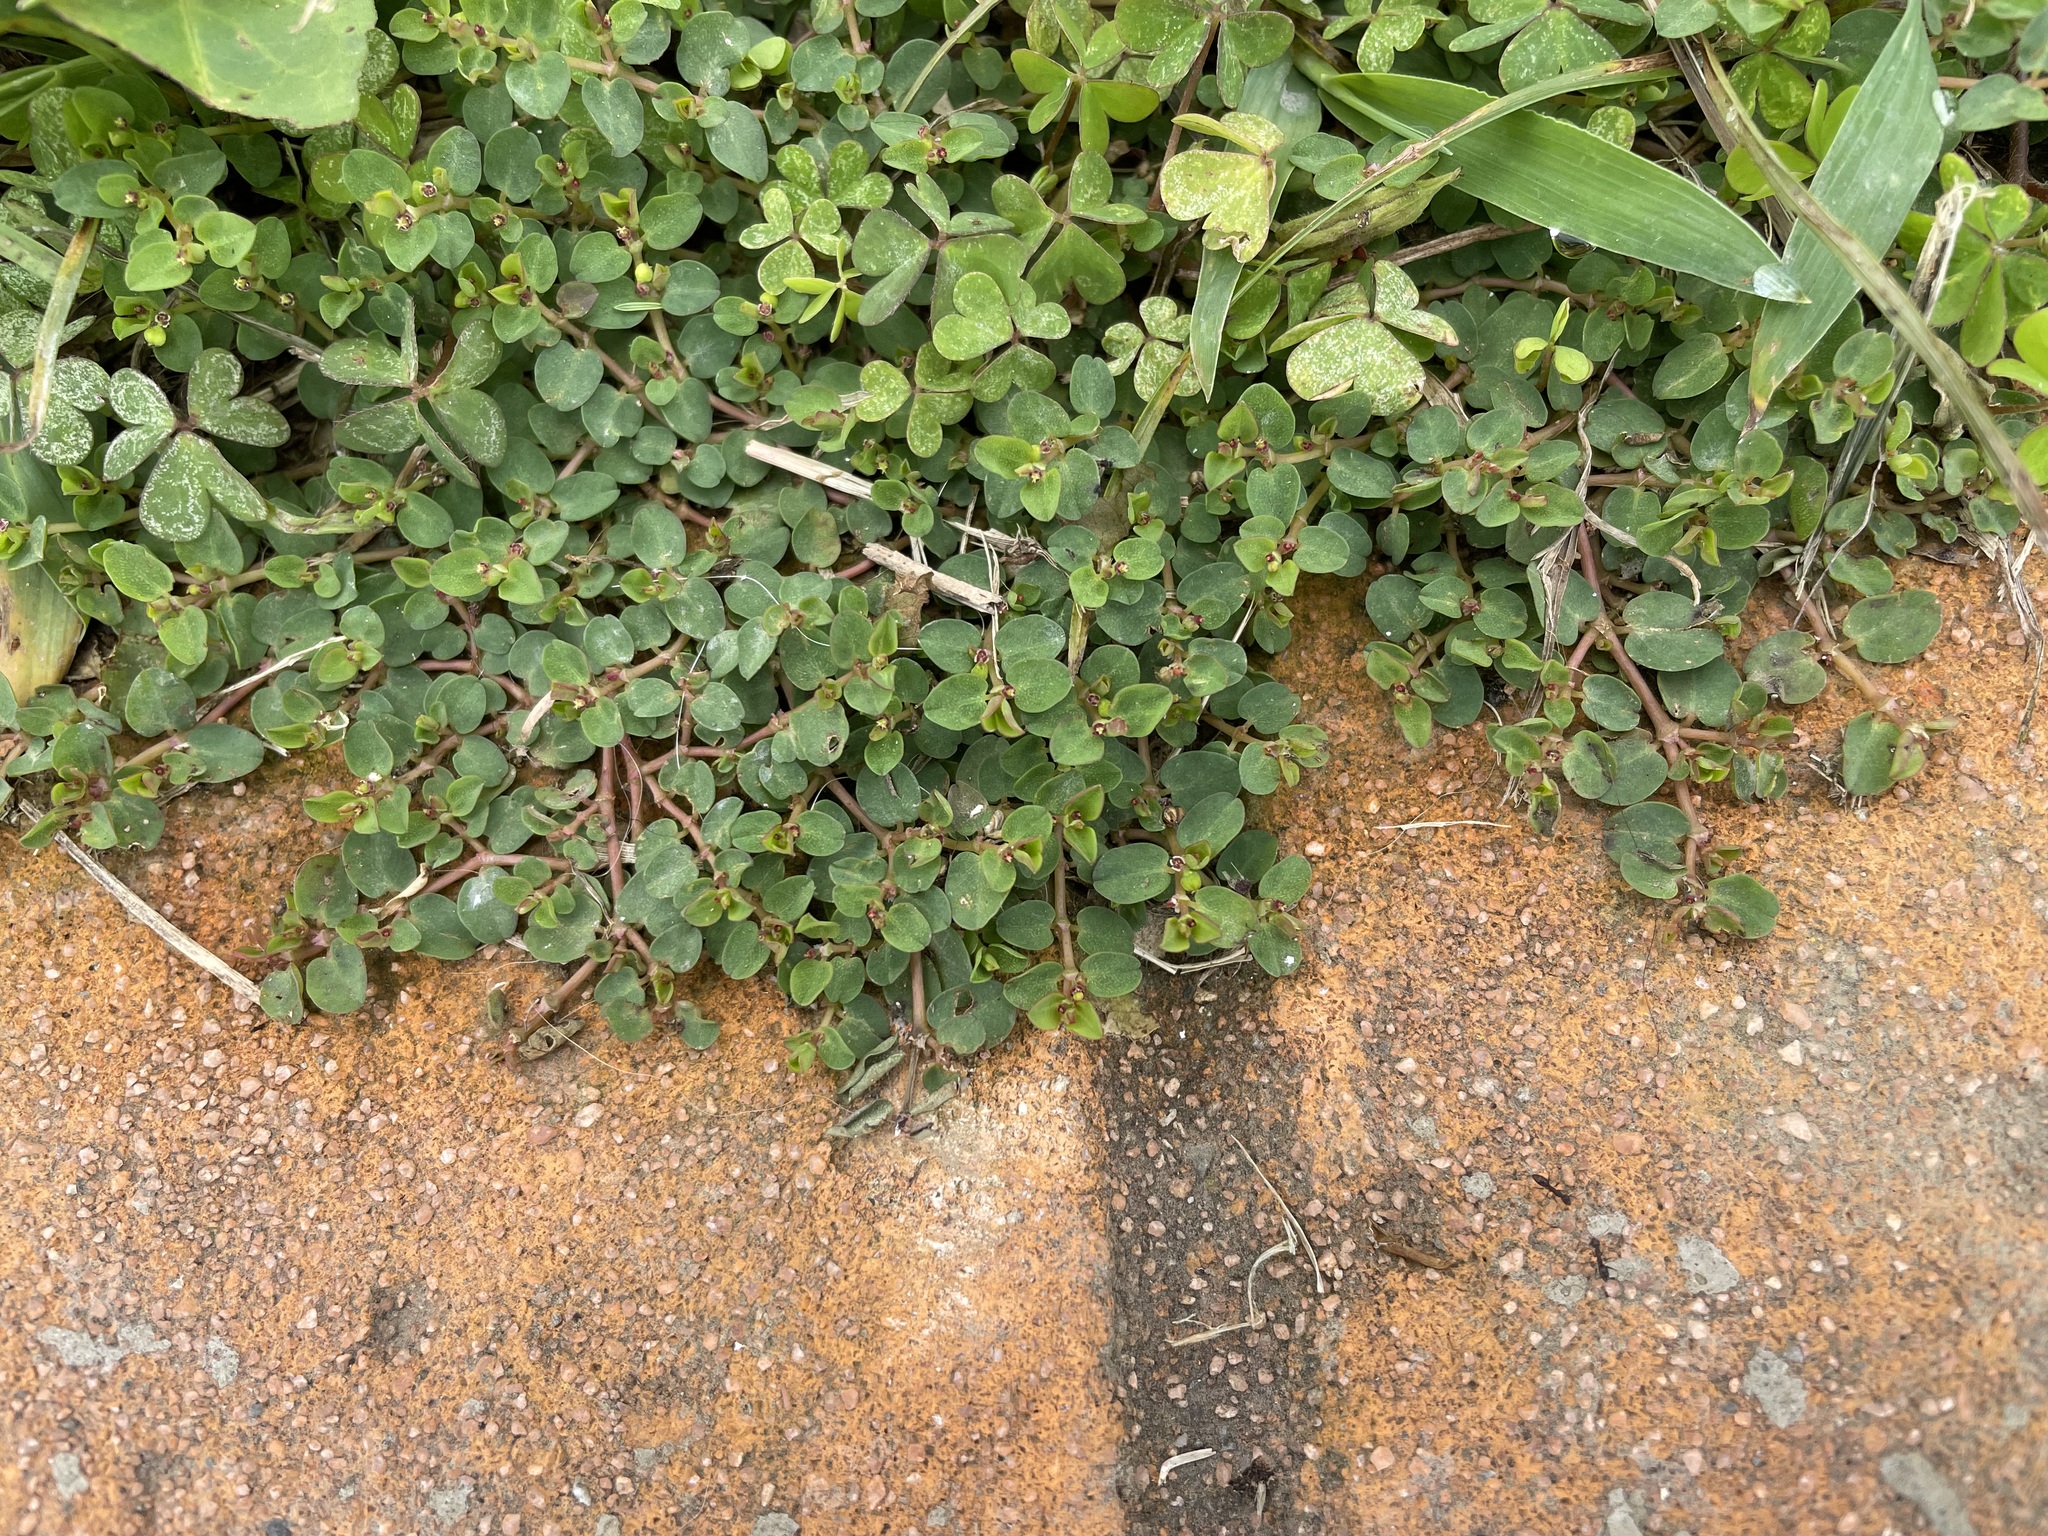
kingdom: Plantae
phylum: Tracheophyta
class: Magnoliopsida
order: Malpighiales
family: Euphorbiaceae
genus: Euphorbia
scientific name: Euphorbia serpens
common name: Matted sandmat
